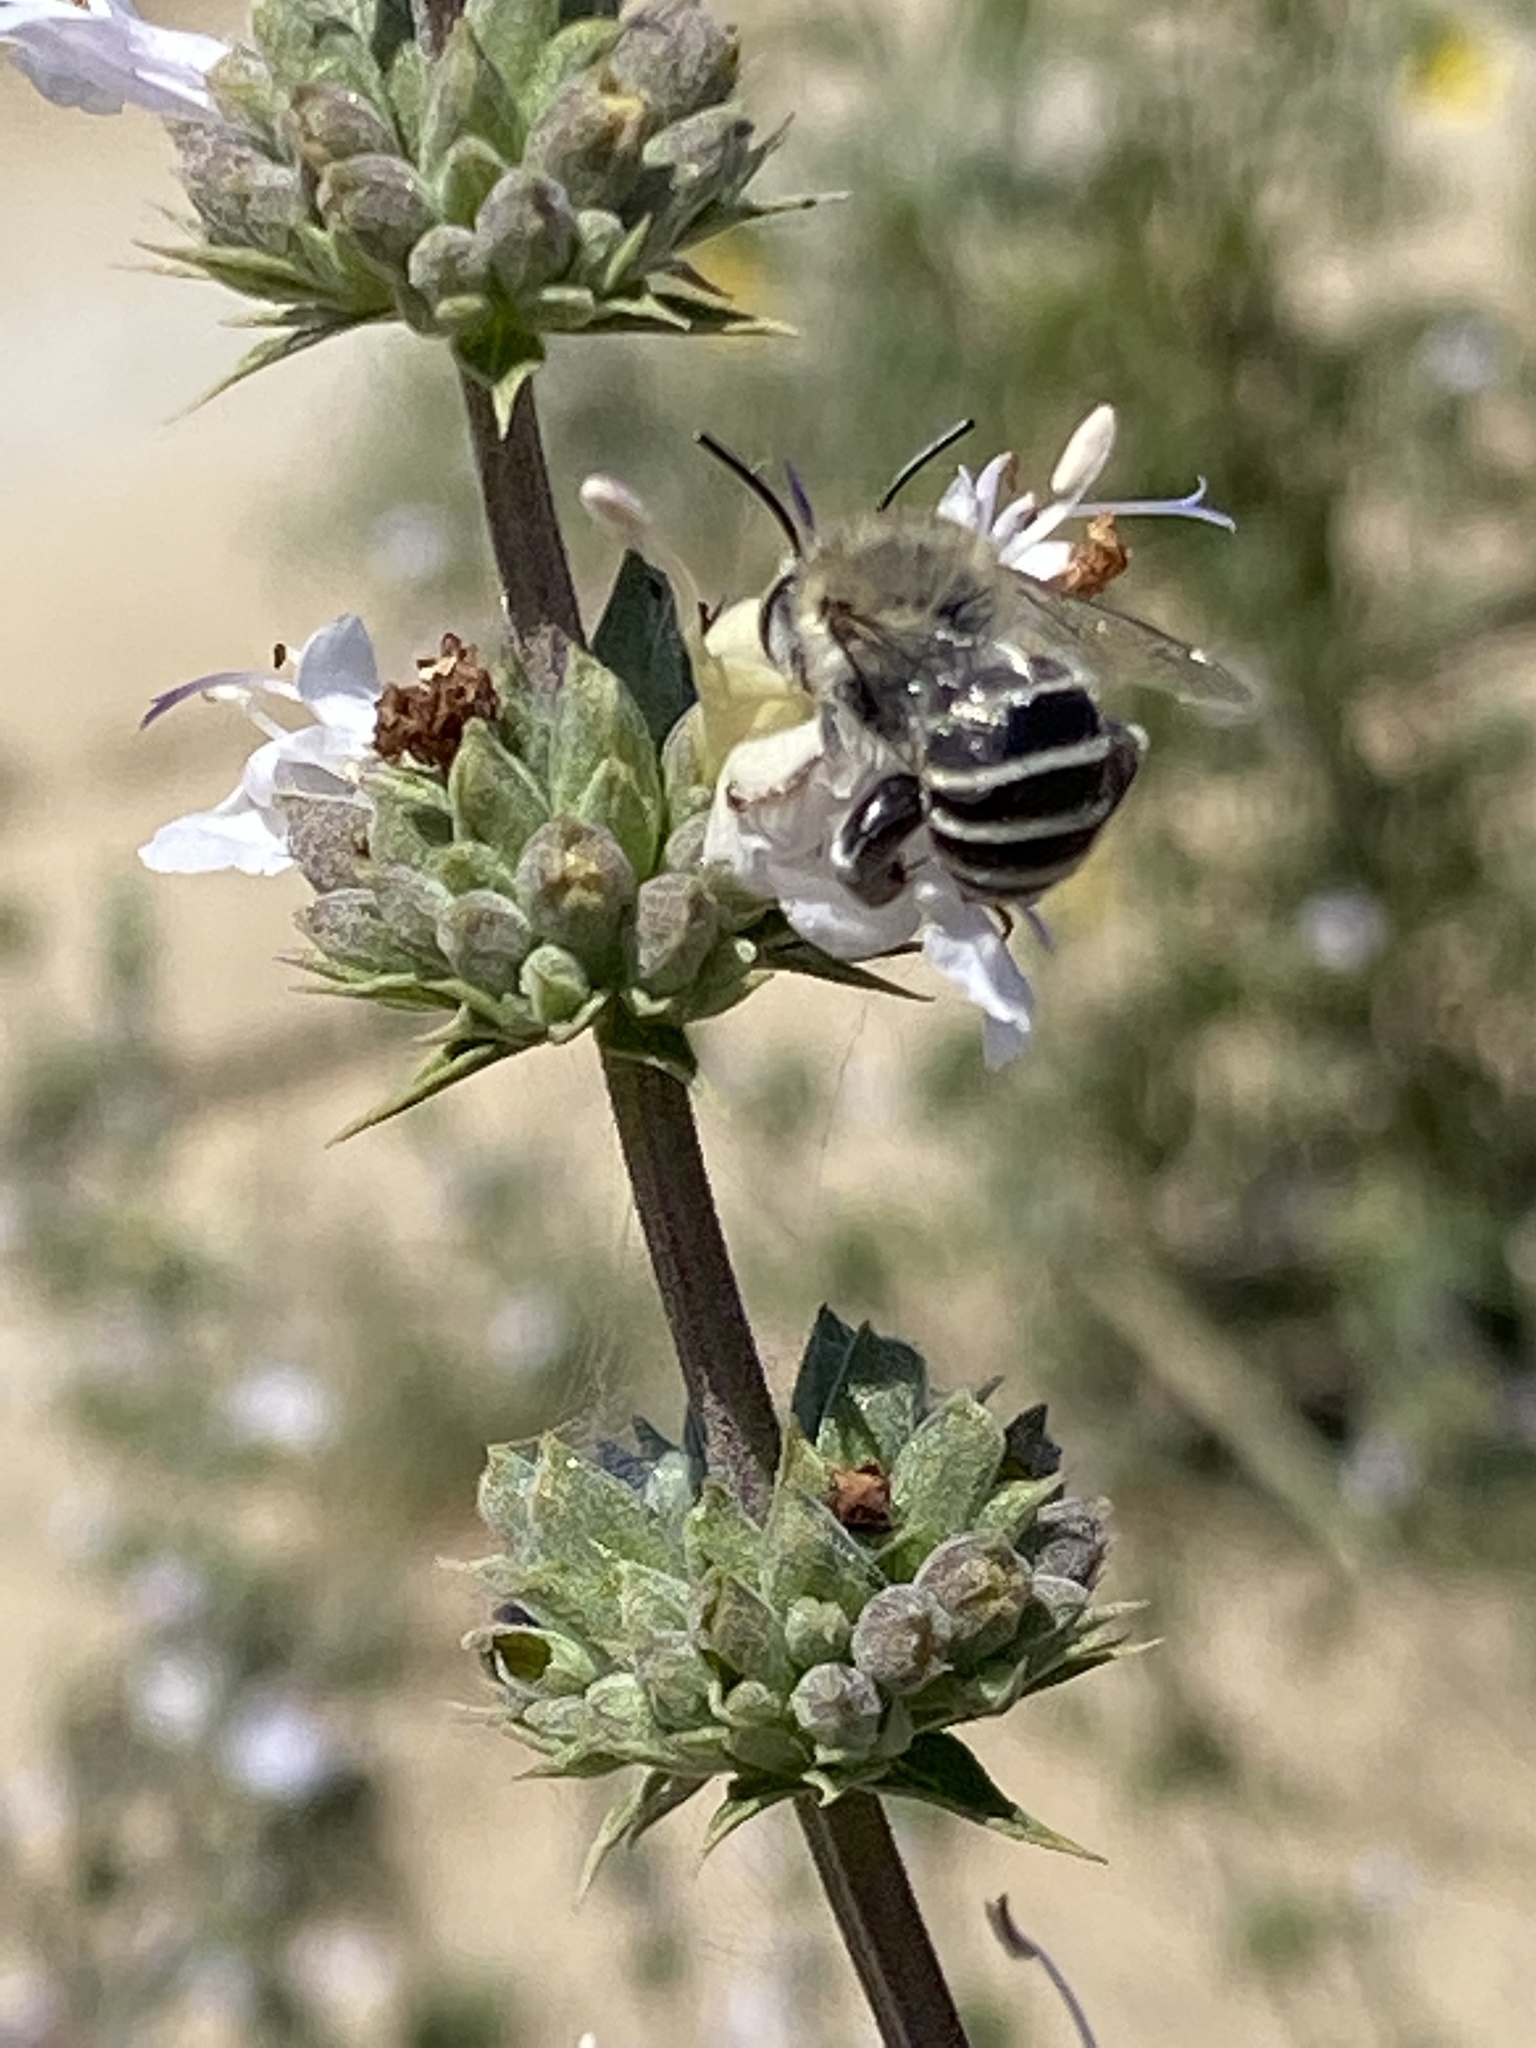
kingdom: Animalia
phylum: Arthropoda
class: Insecta
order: Hymenoptera
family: Apidae
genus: Anthophora
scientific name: Anthophora californica
